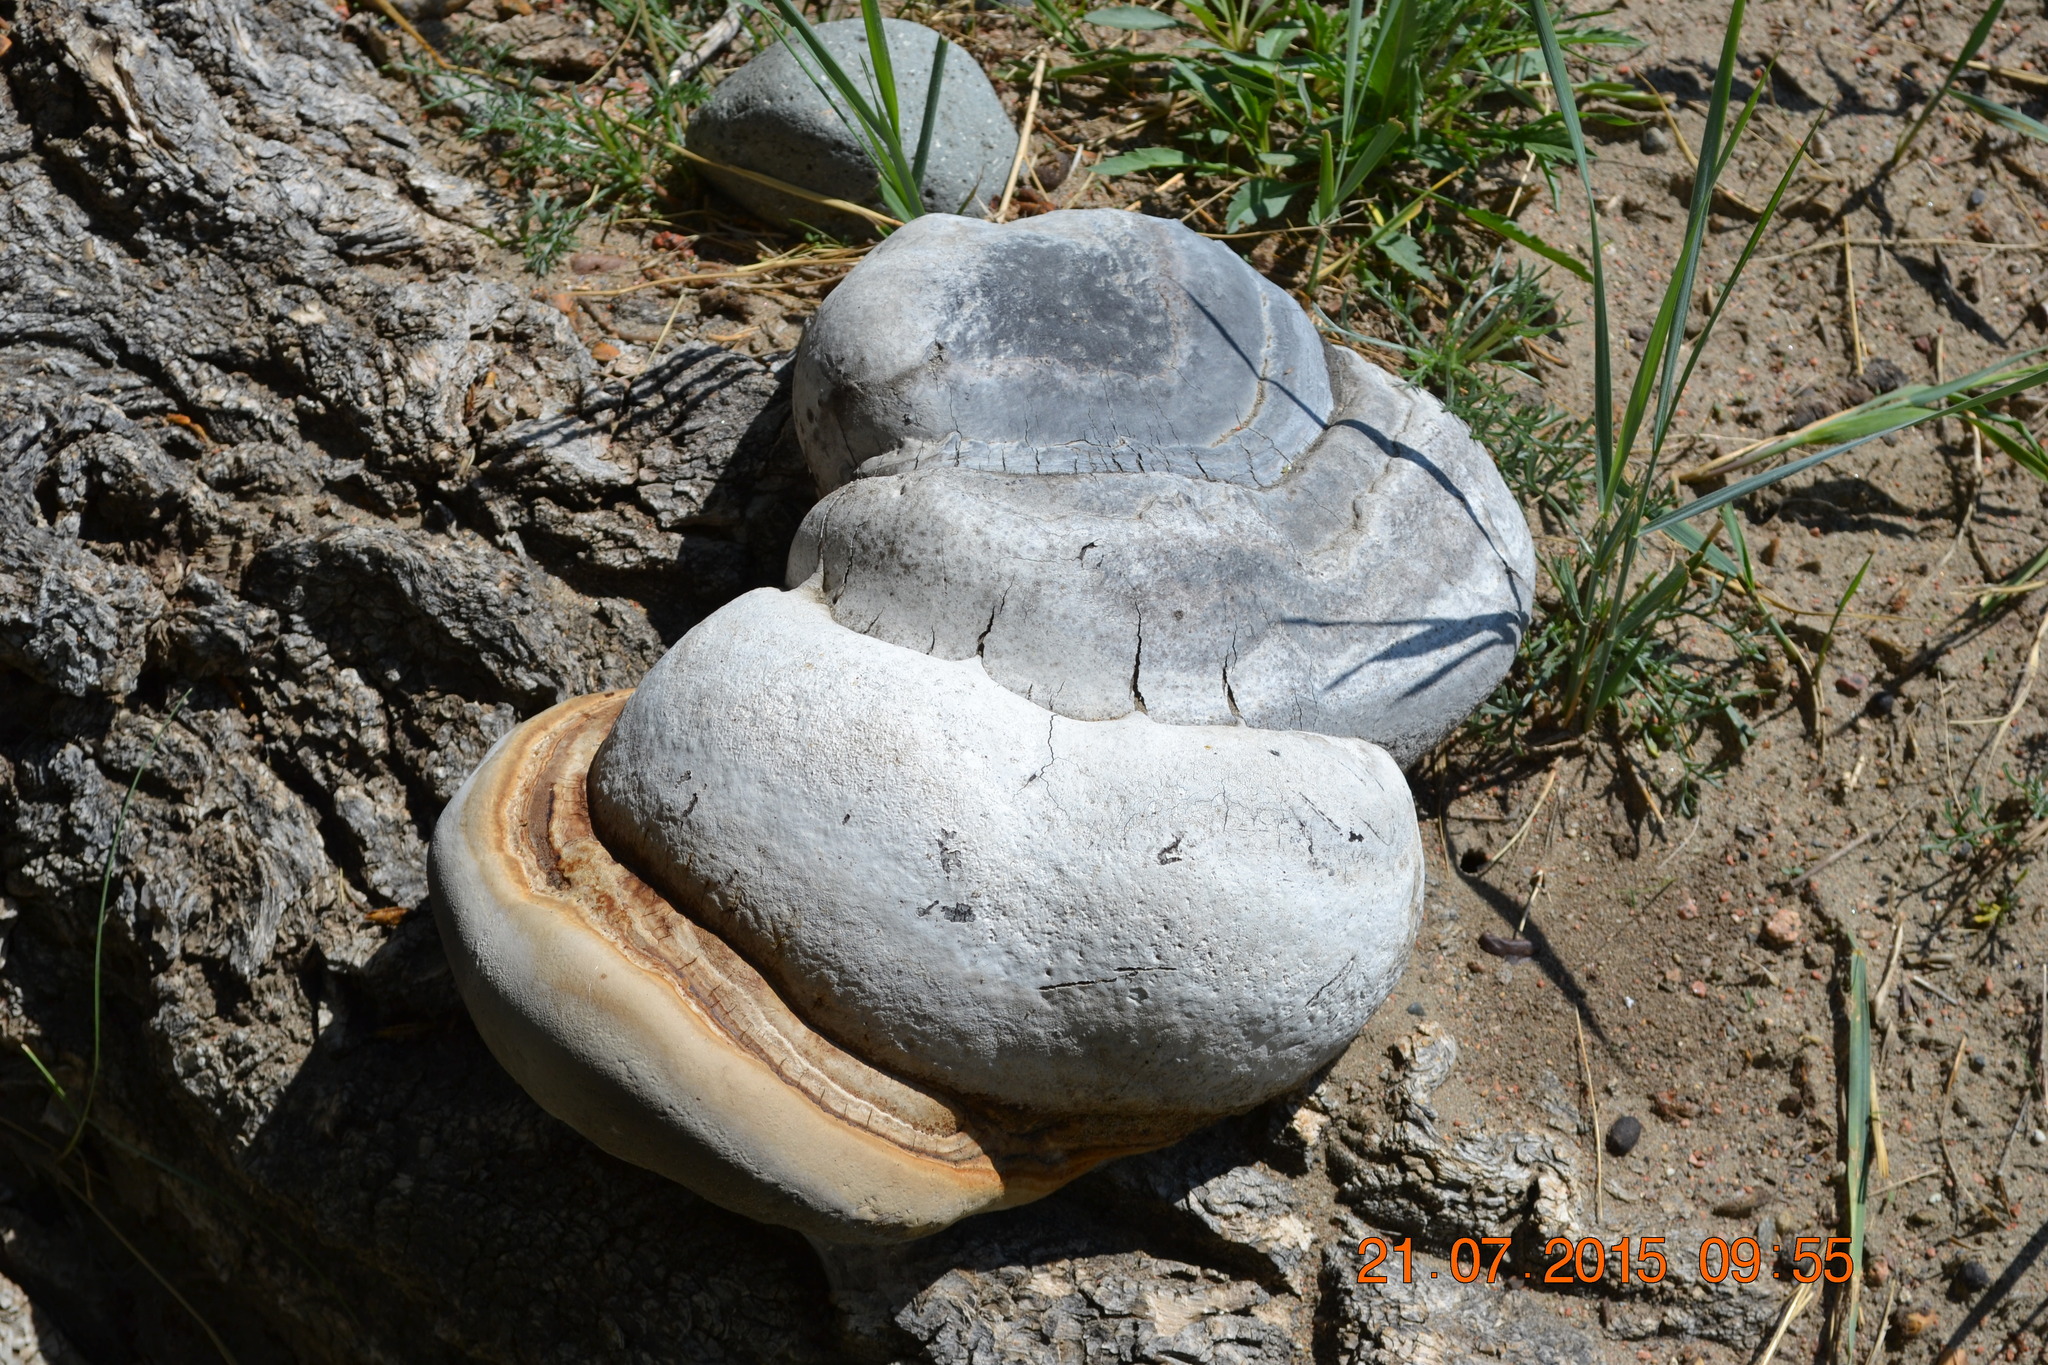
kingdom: Fungi
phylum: Basidiomycota
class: Agaricomycetes
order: Polyporales
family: Polyporaceae
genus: Fomes
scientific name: Fomes fomentarius
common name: Hoof fungus
